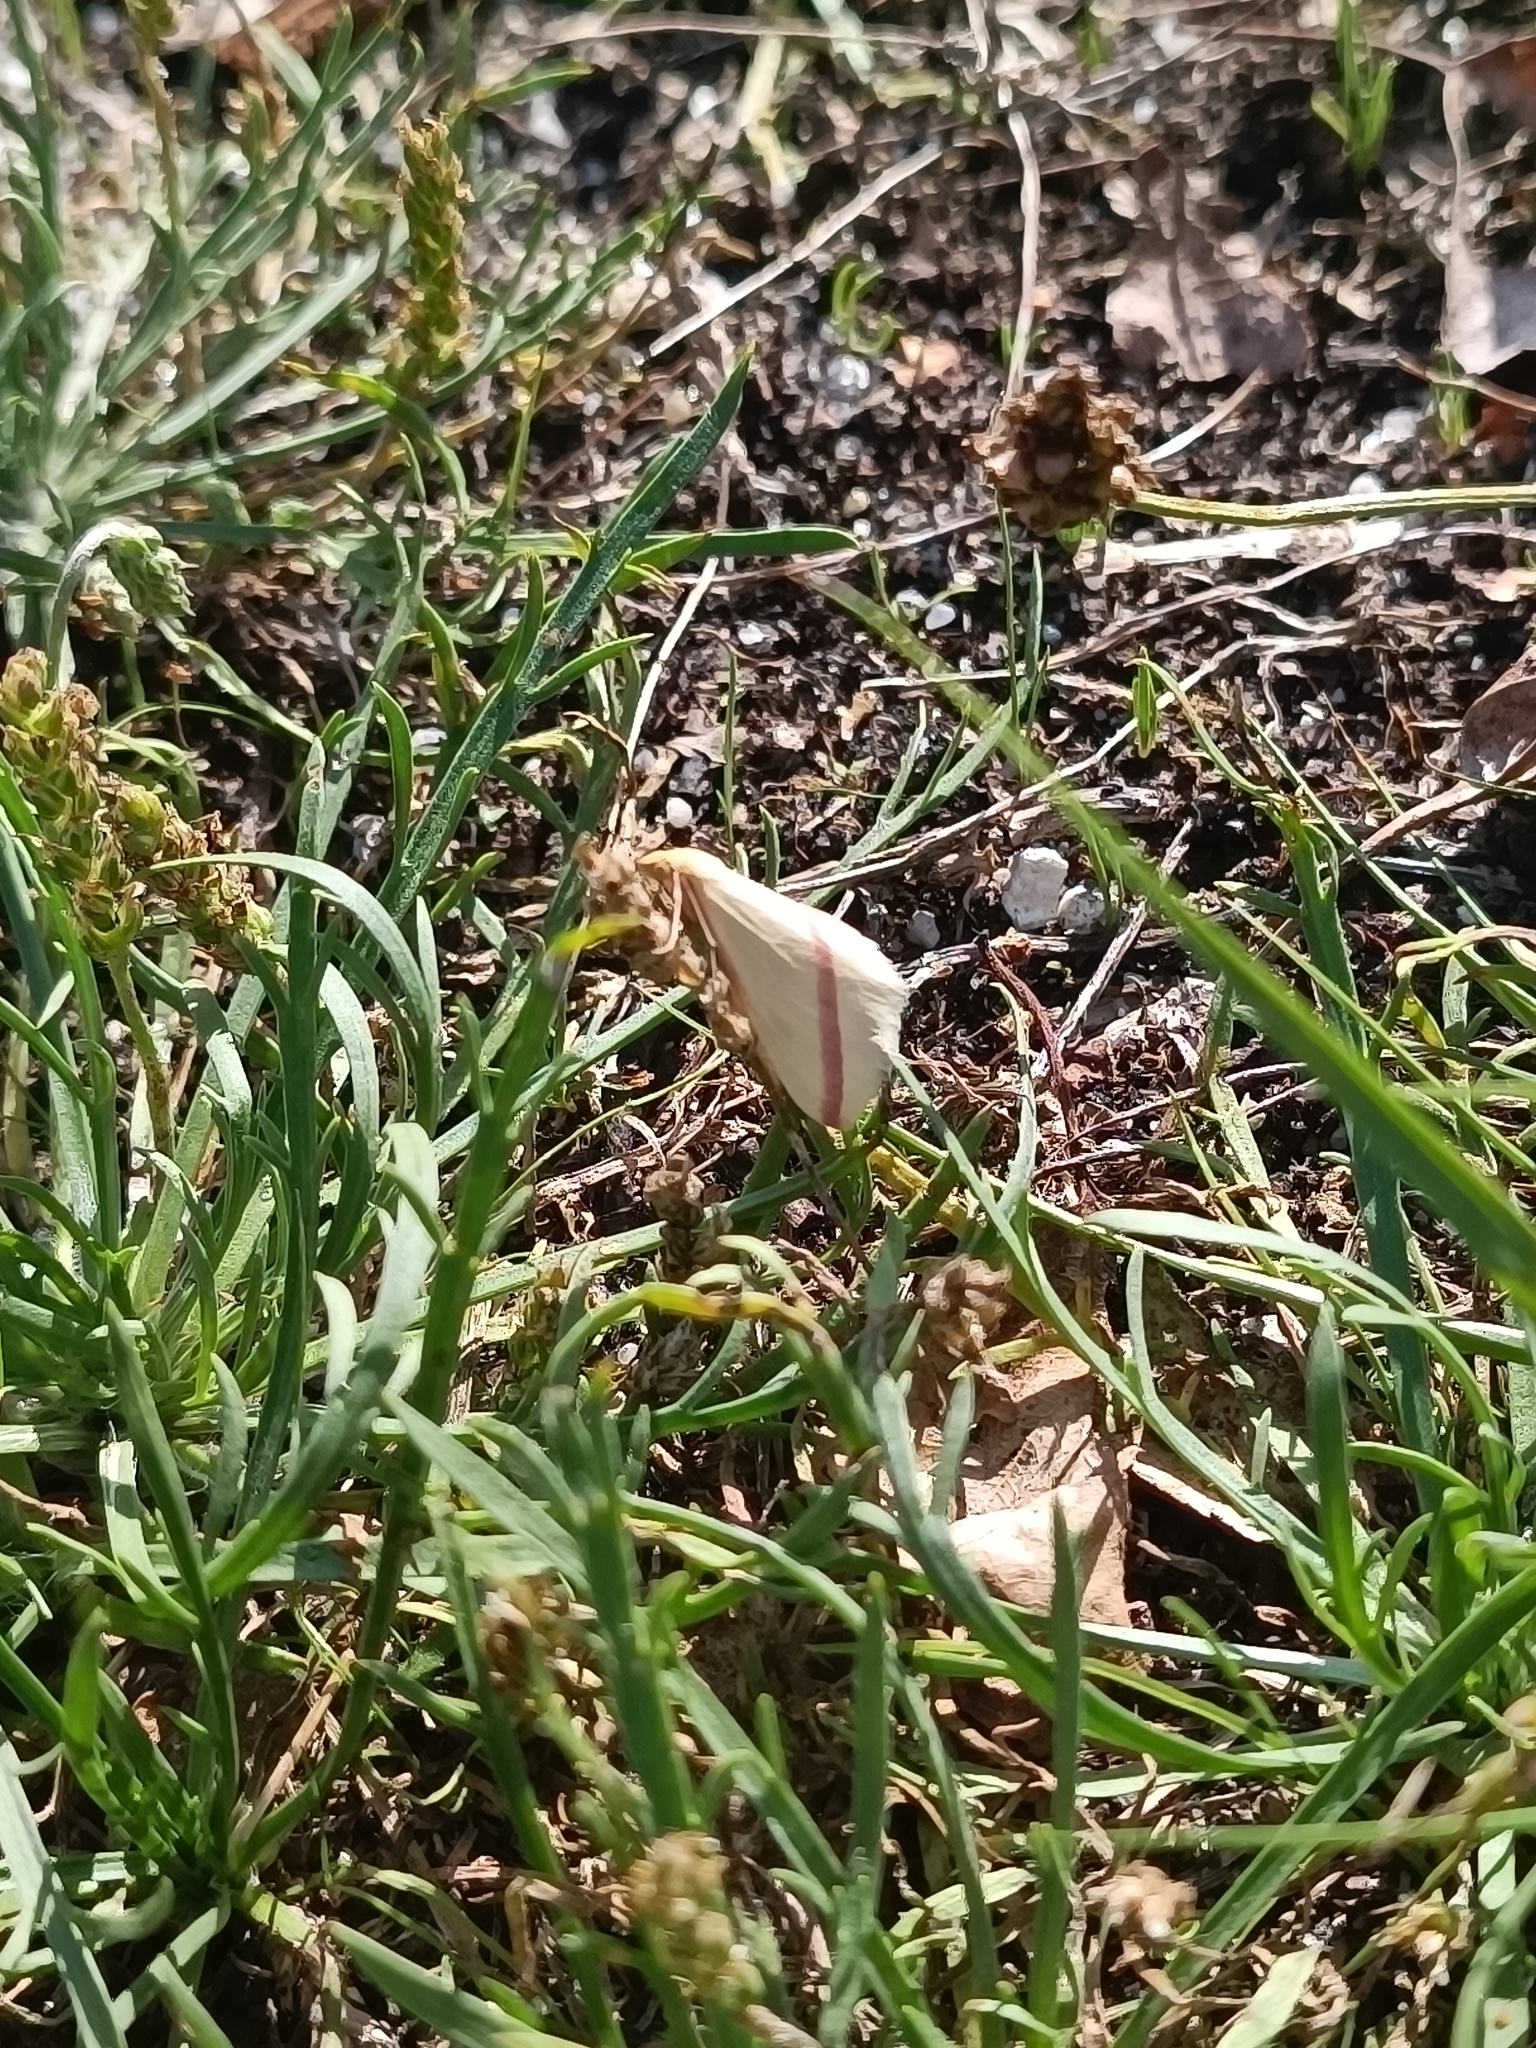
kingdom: Animalia
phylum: Arthropoda
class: Insecta
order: Lepidoptera
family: Geometridae
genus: Rhodometra
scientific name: Rhodometra sacraria
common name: Vestal
